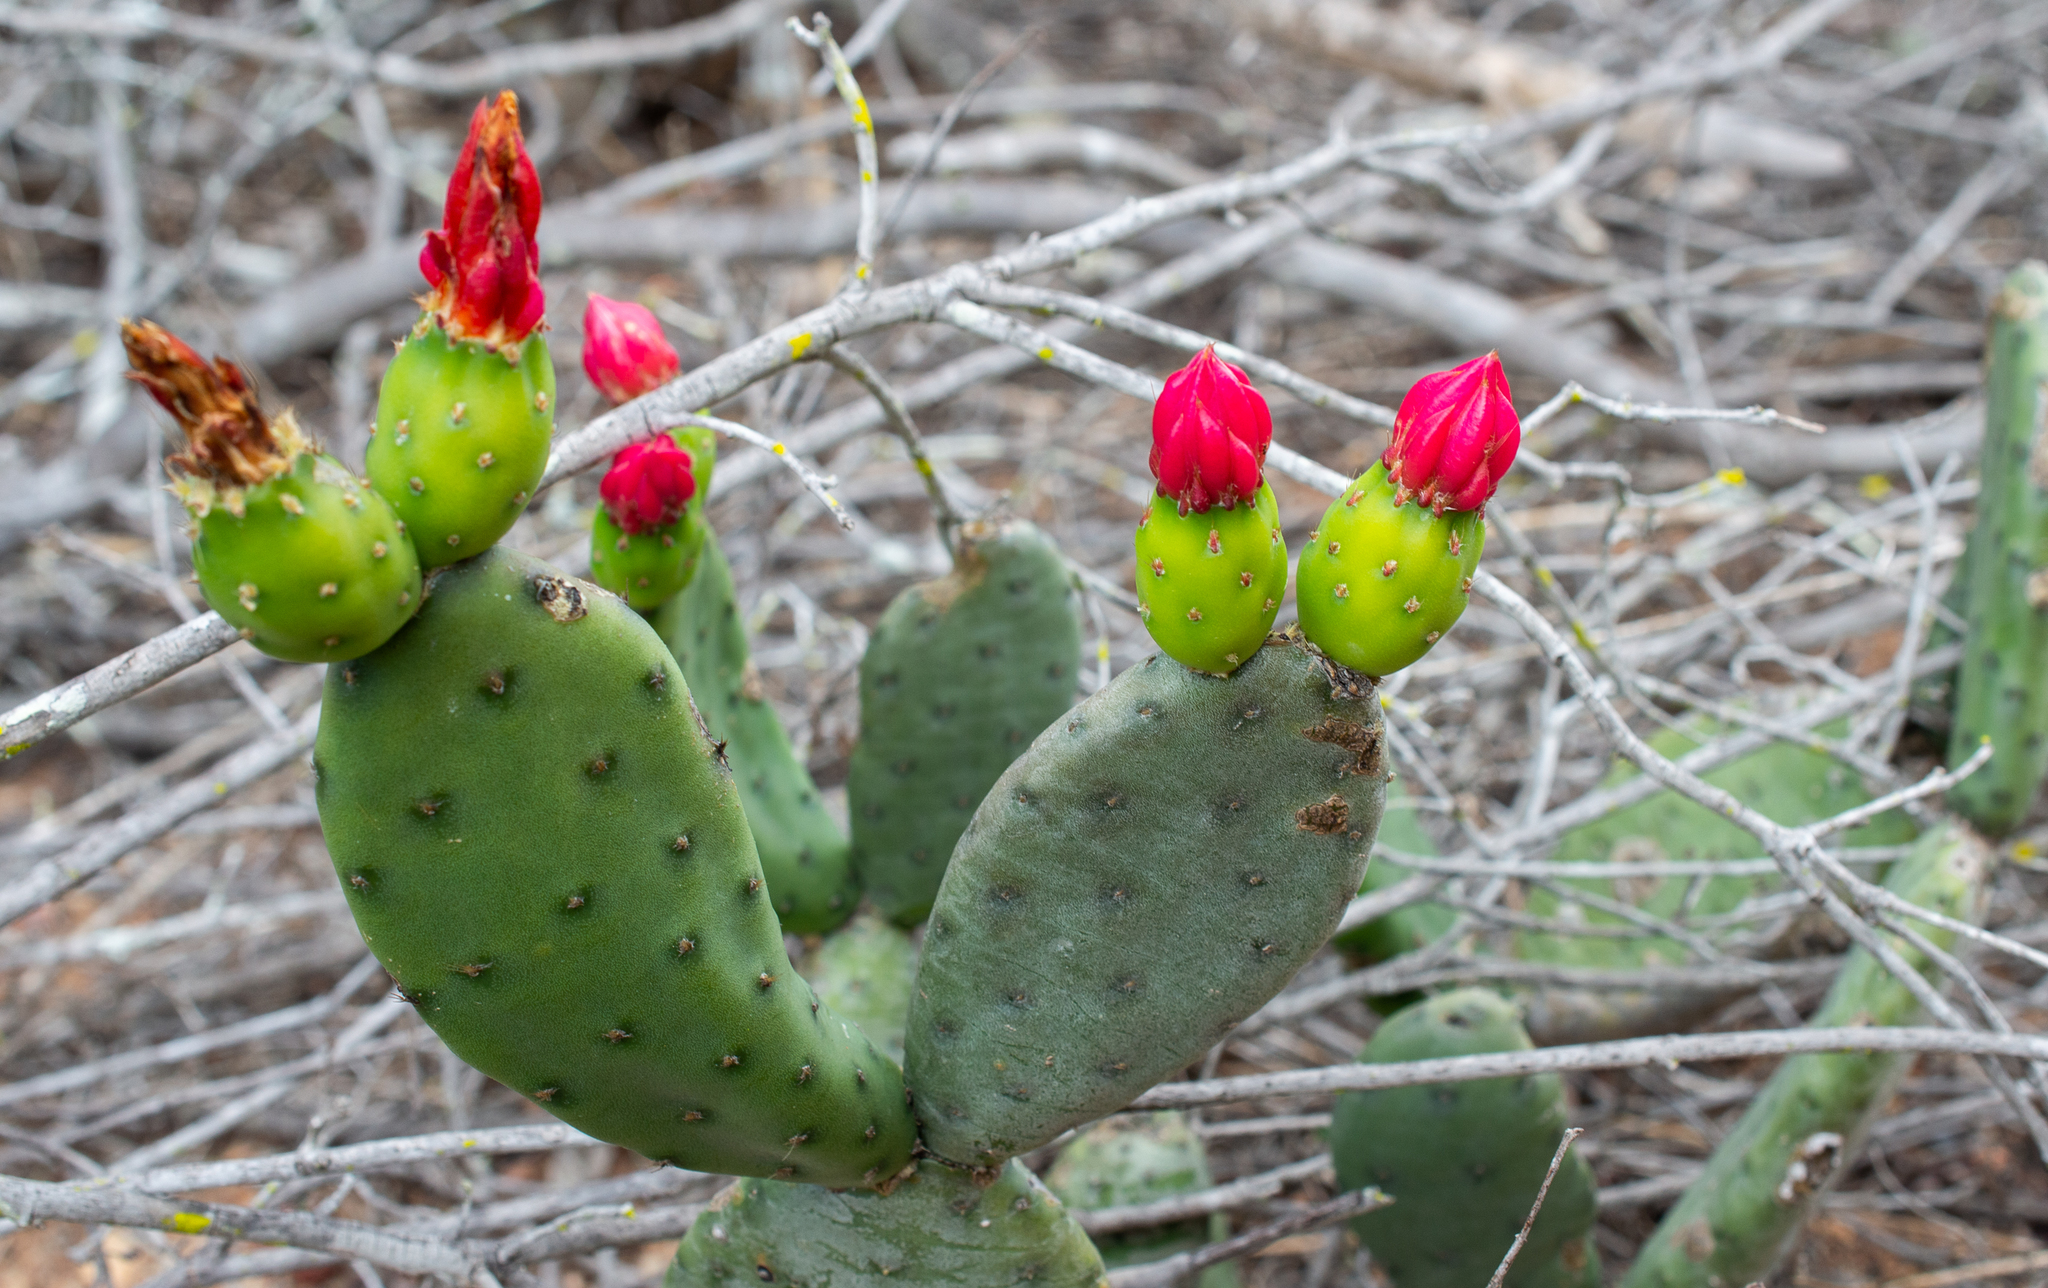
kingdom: Plantae
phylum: Tracheophyta
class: Magnoliopsida
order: Caryophyllales
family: Cactaceae
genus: Tacinga
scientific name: Tacinga inamoena
